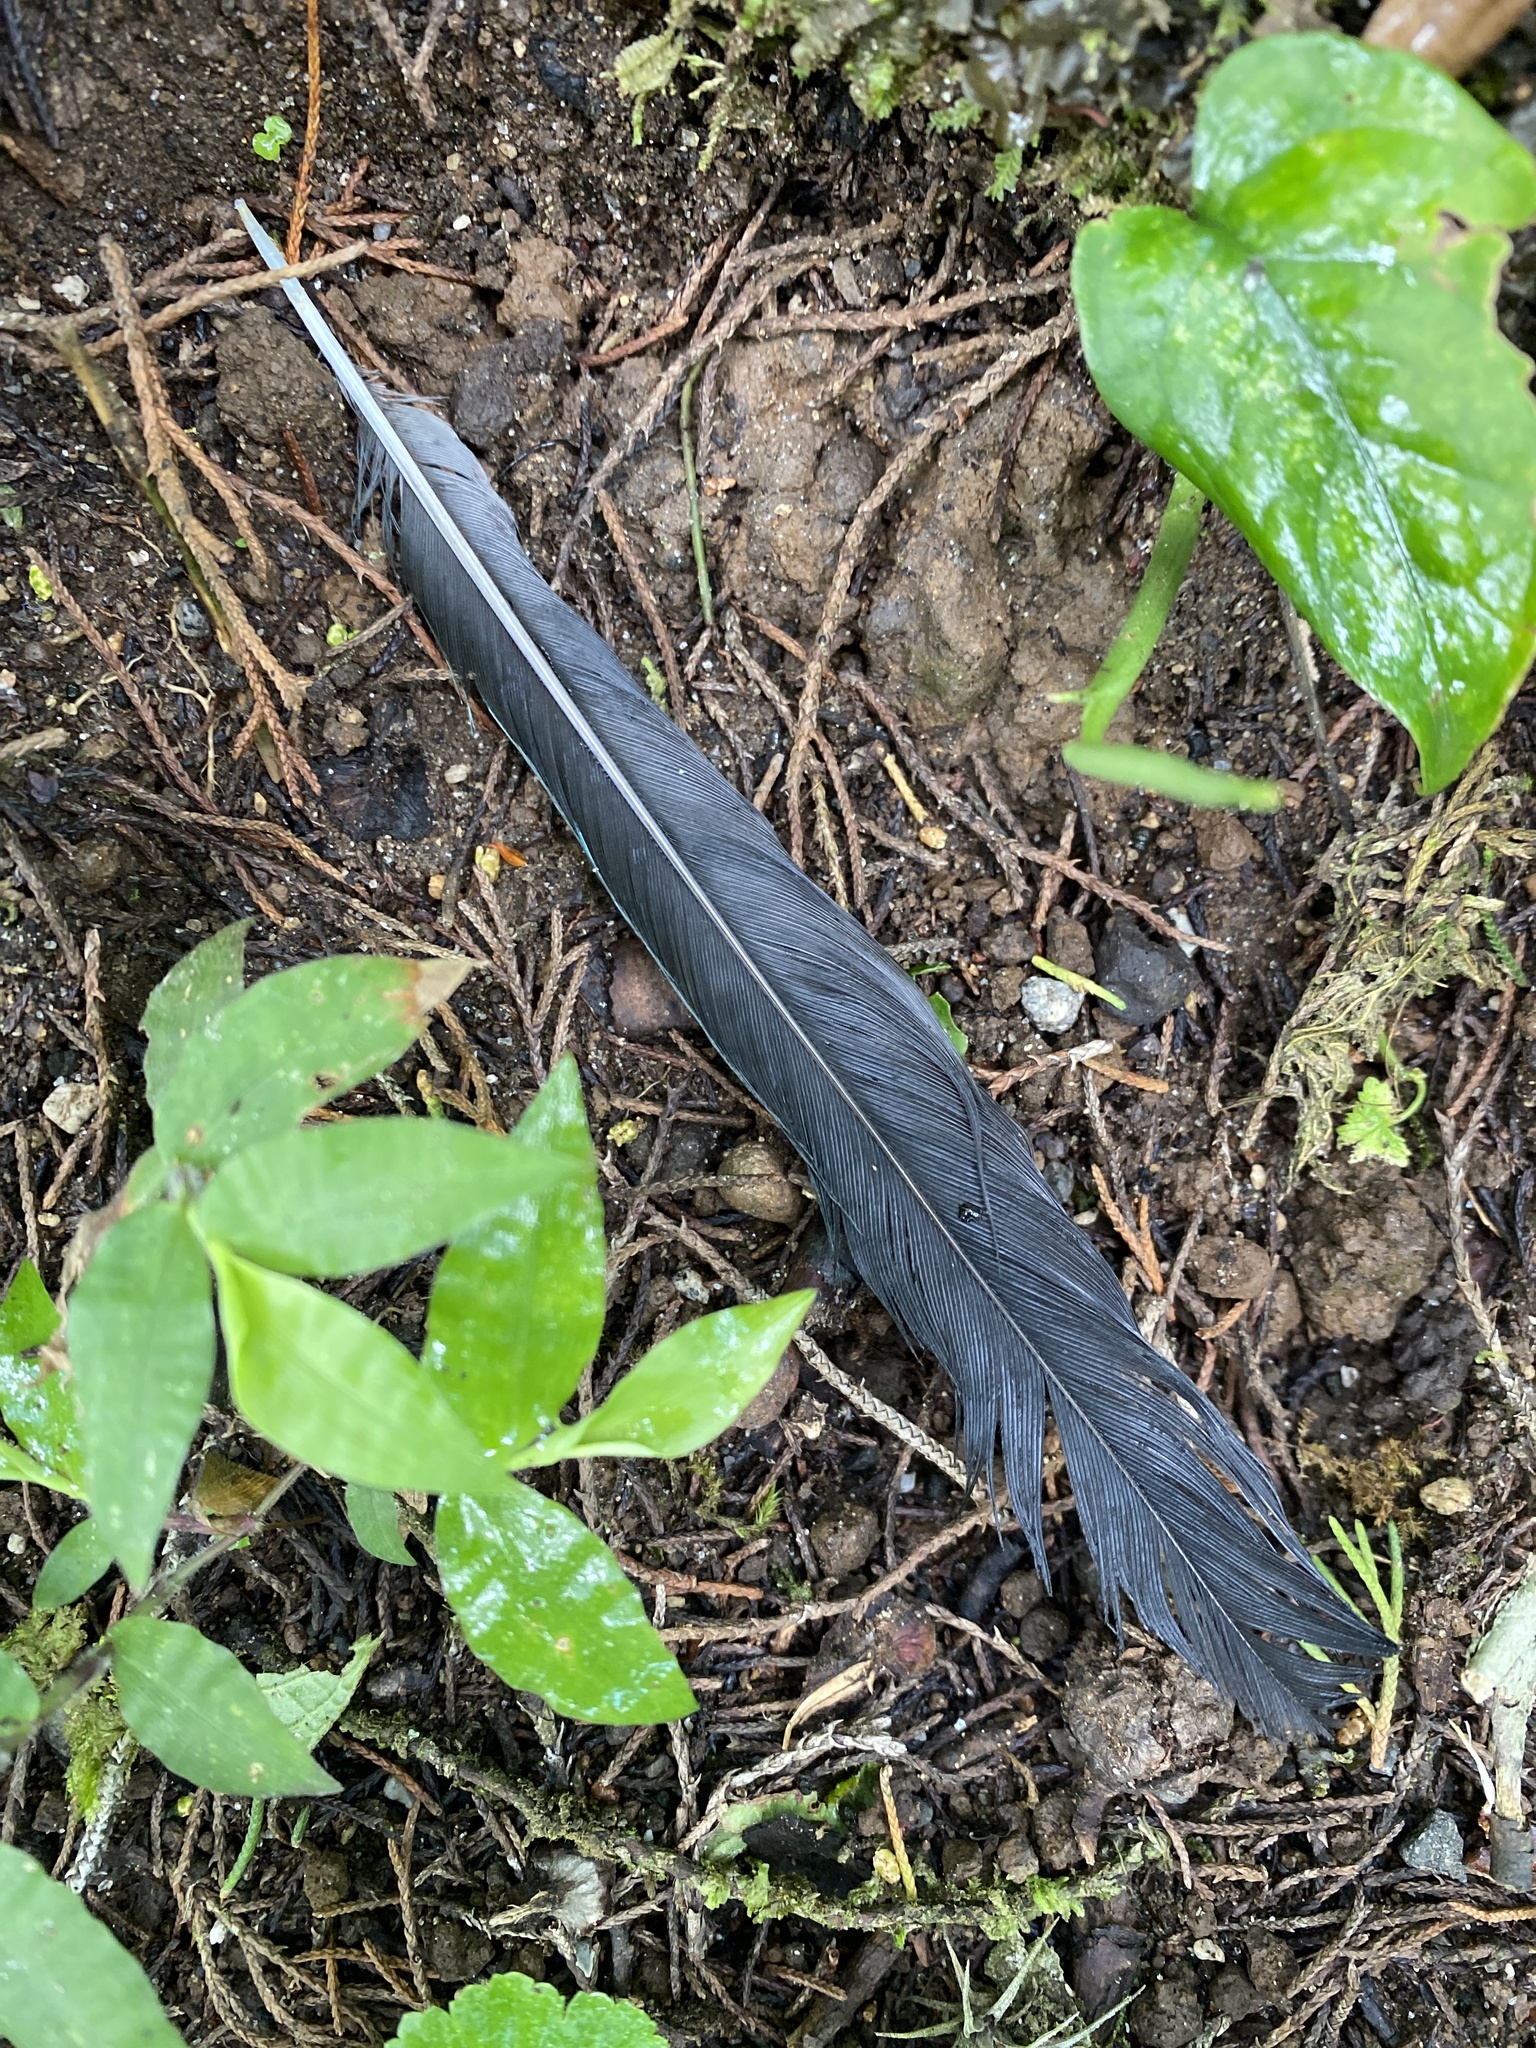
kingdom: Animalia
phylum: Chordata
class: Aves
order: Passeriformes
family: Corvidae
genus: Cyanocorax
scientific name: Cyanocorax melanocyaneus
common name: Bushy-crested jay
